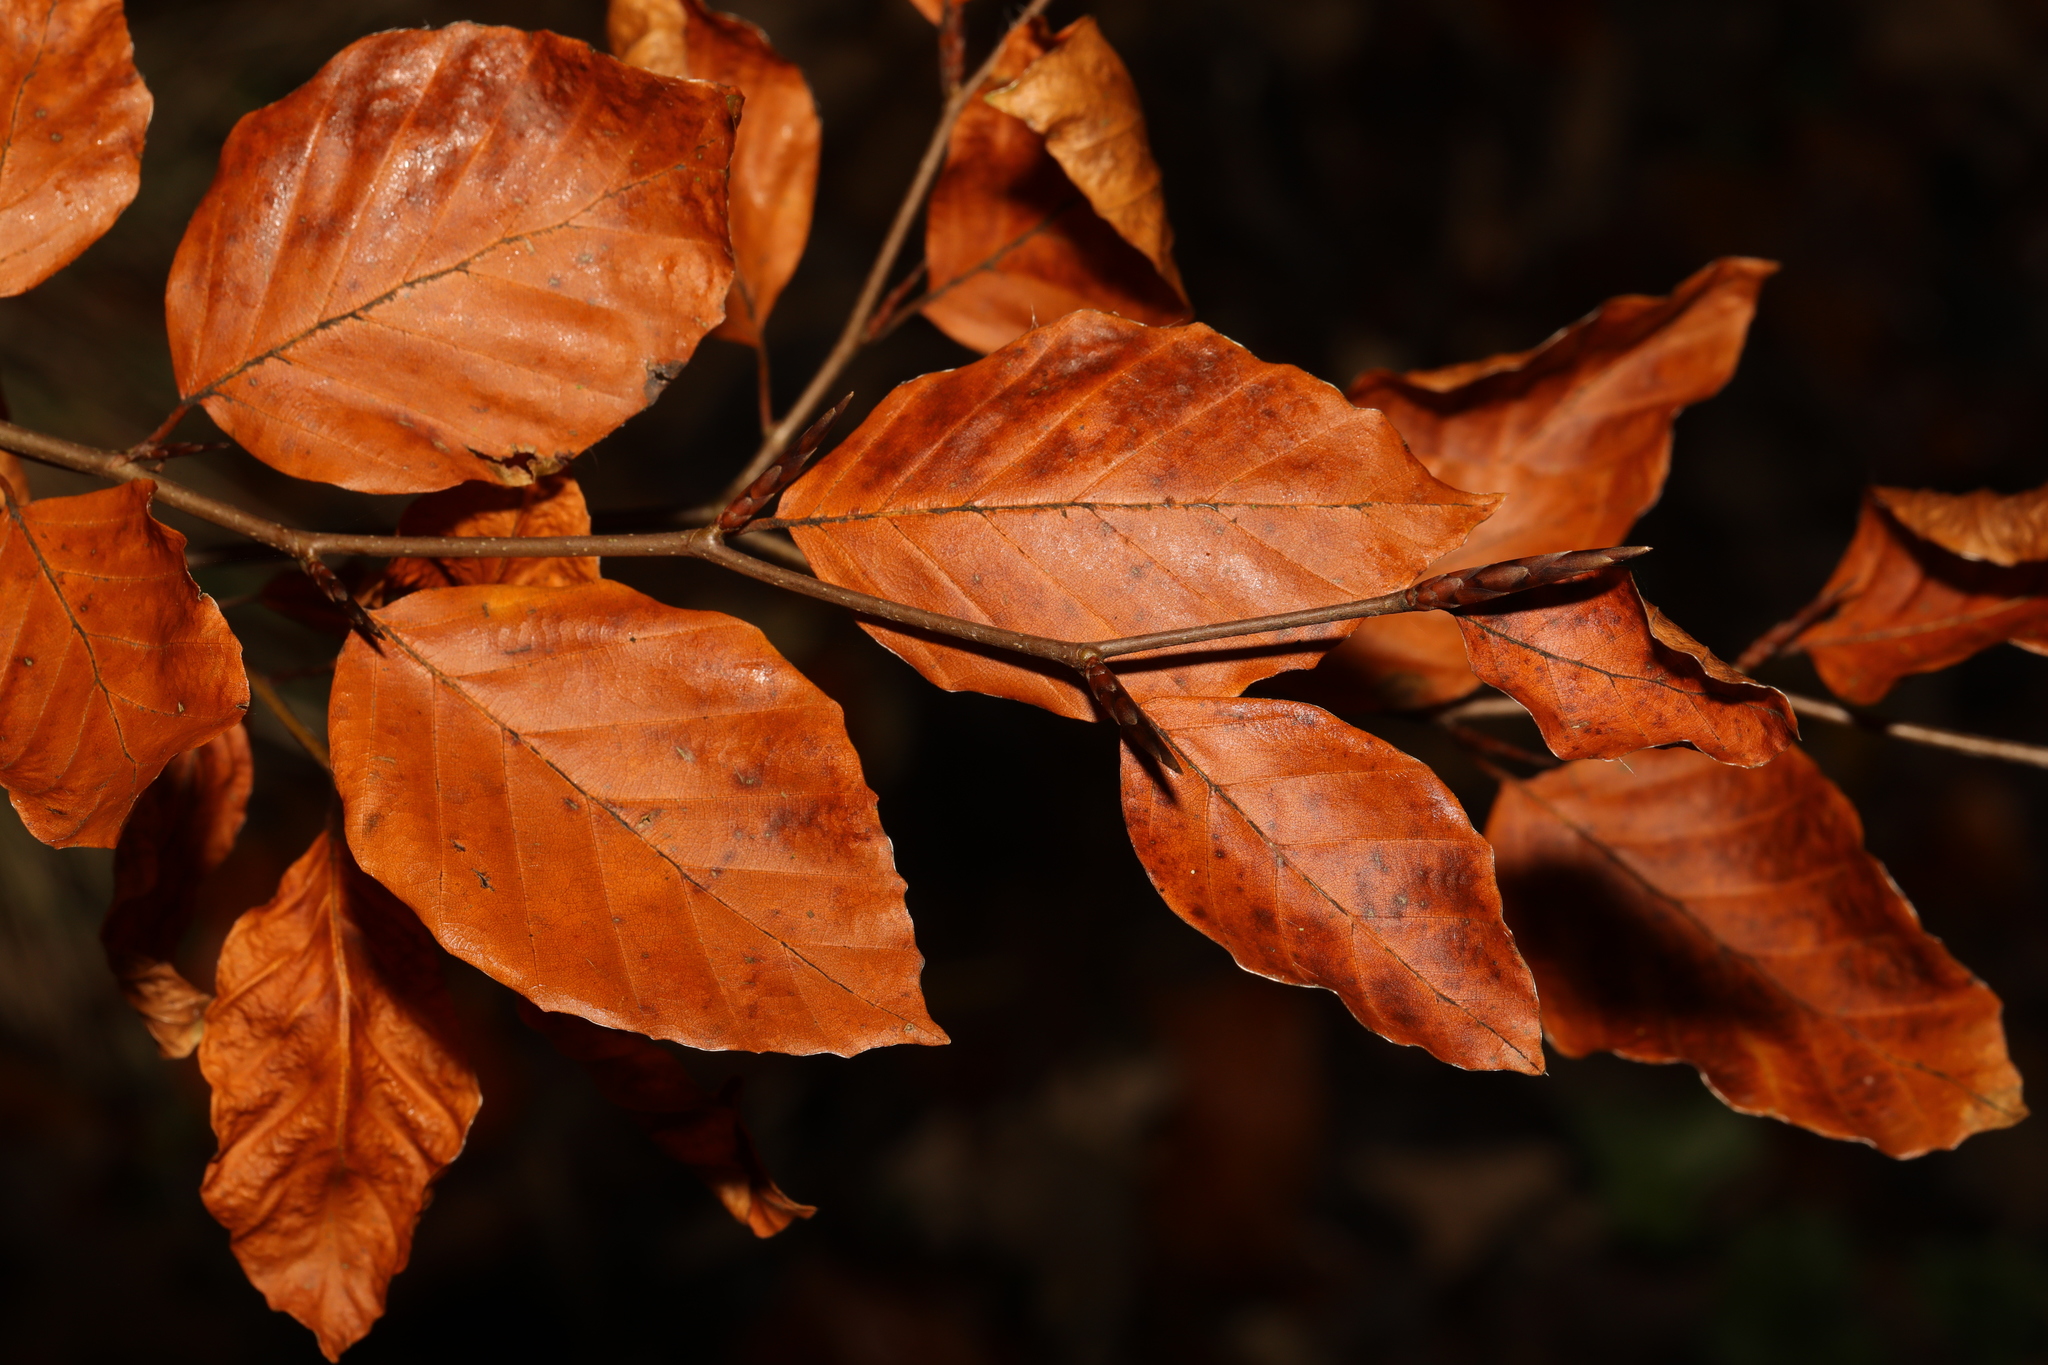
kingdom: Plantae
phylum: Tracheophyta
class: Magnoliopsida
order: Fagales
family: Fagaceae
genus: Fagus
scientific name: Fagus sylvatica
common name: Beech
